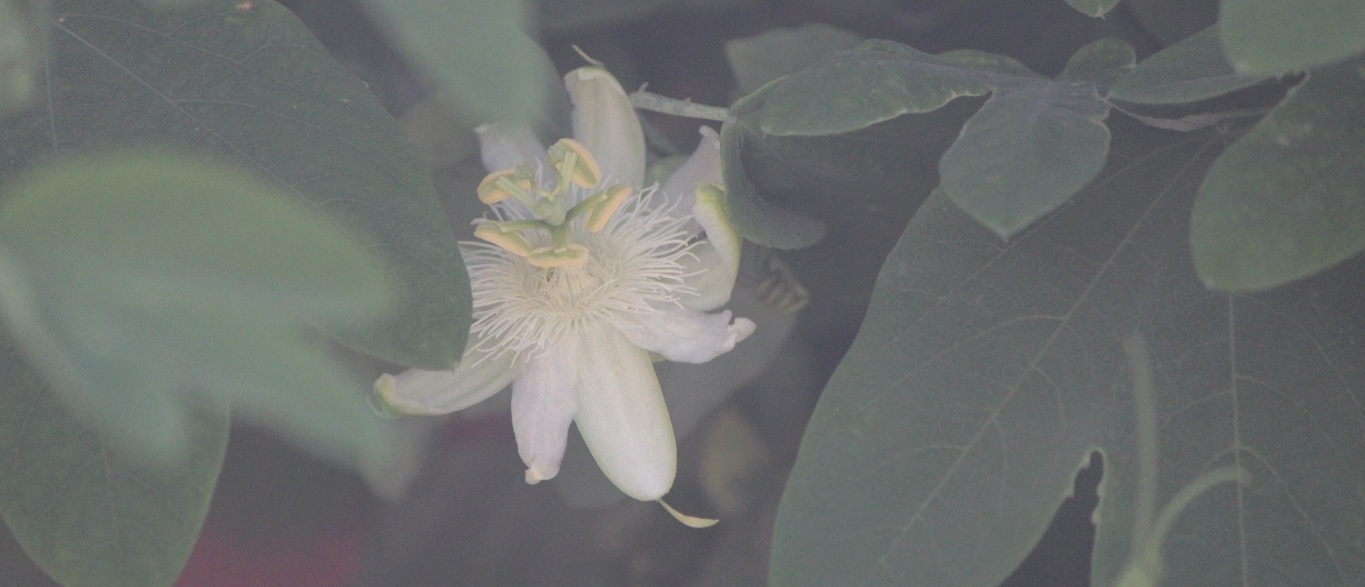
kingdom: Plantae
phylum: Tracheophyta
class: Magnoliopsida
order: Malpighiales
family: Passifloraceae
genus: Passiflora
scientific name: Passiflora subpeltata
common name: White passionflower
